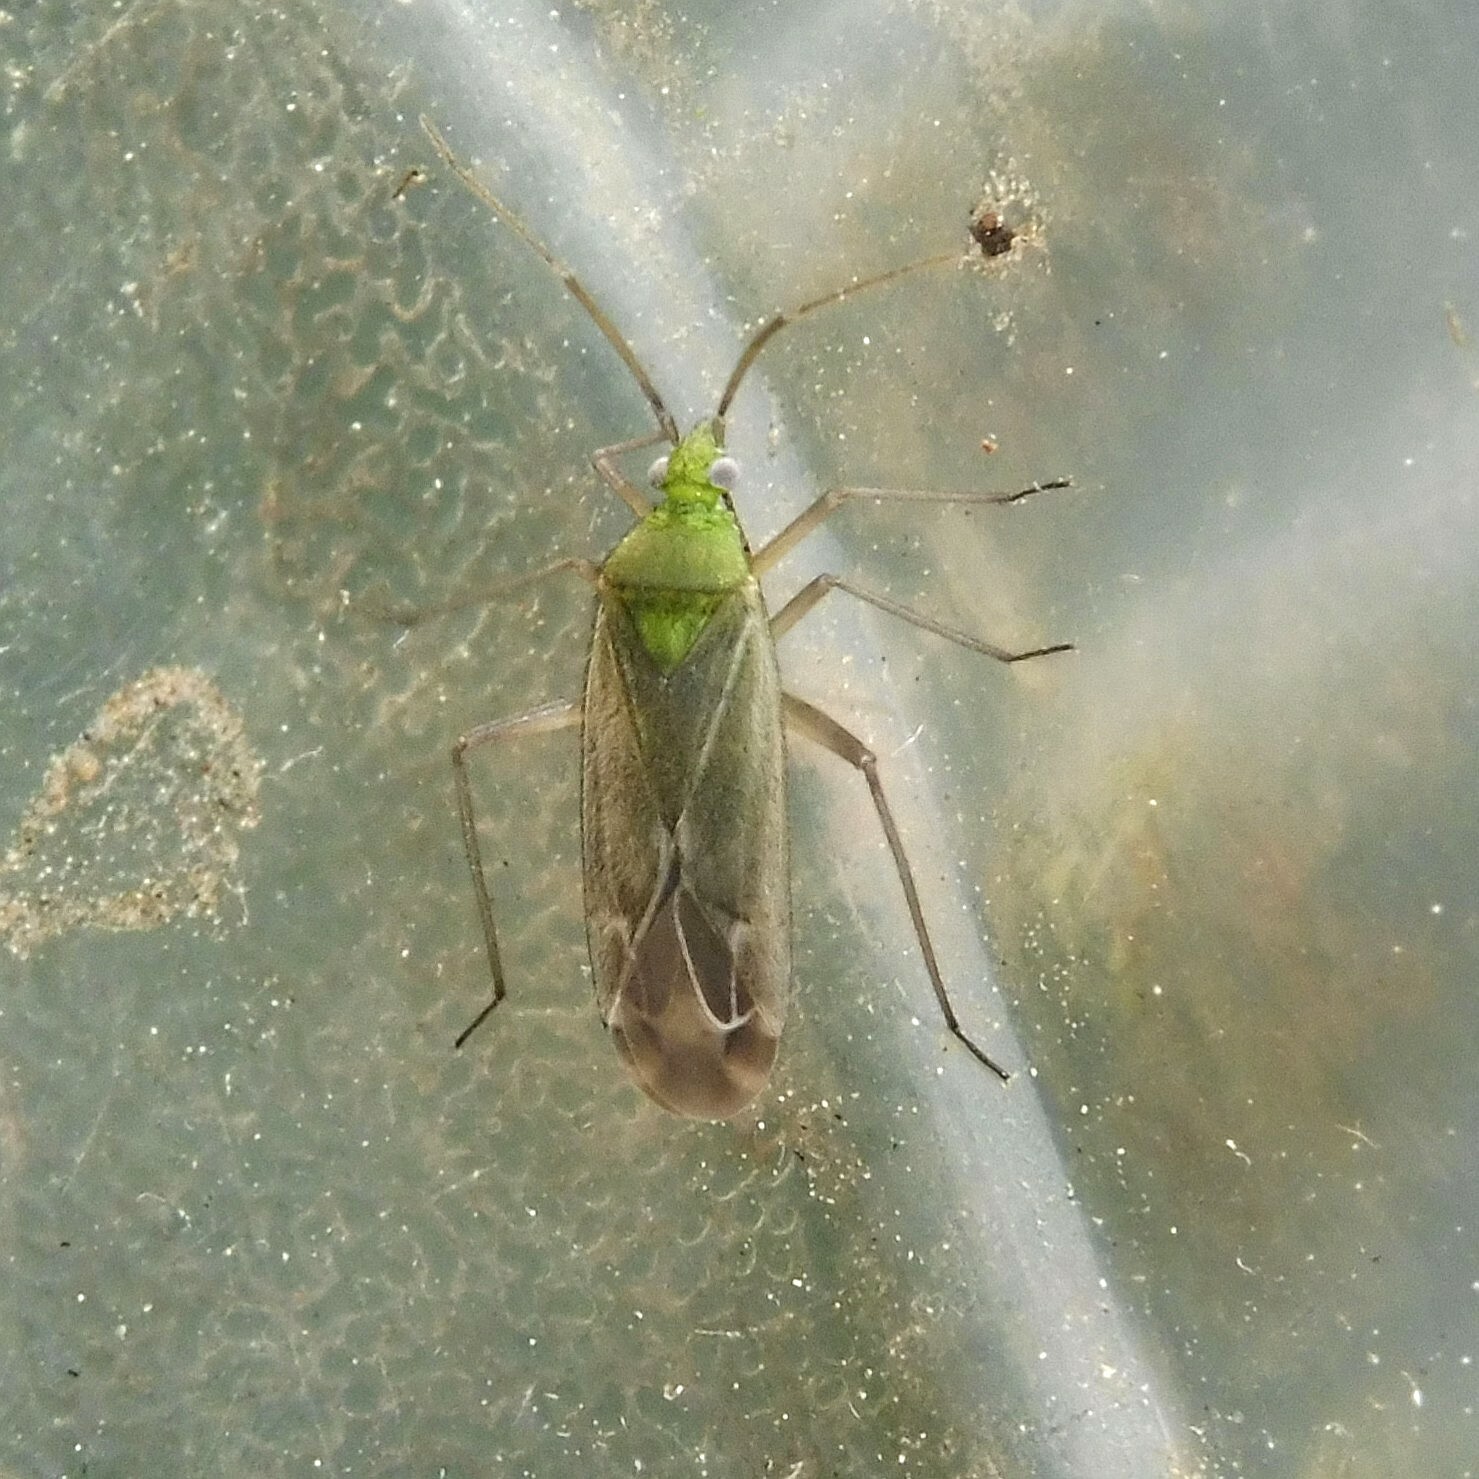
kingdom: Animalia
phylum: Arthropoda
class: Insecta
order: Hemiptera
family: Miridae
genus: Macrotylus
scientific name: Macrotylus solitarius
